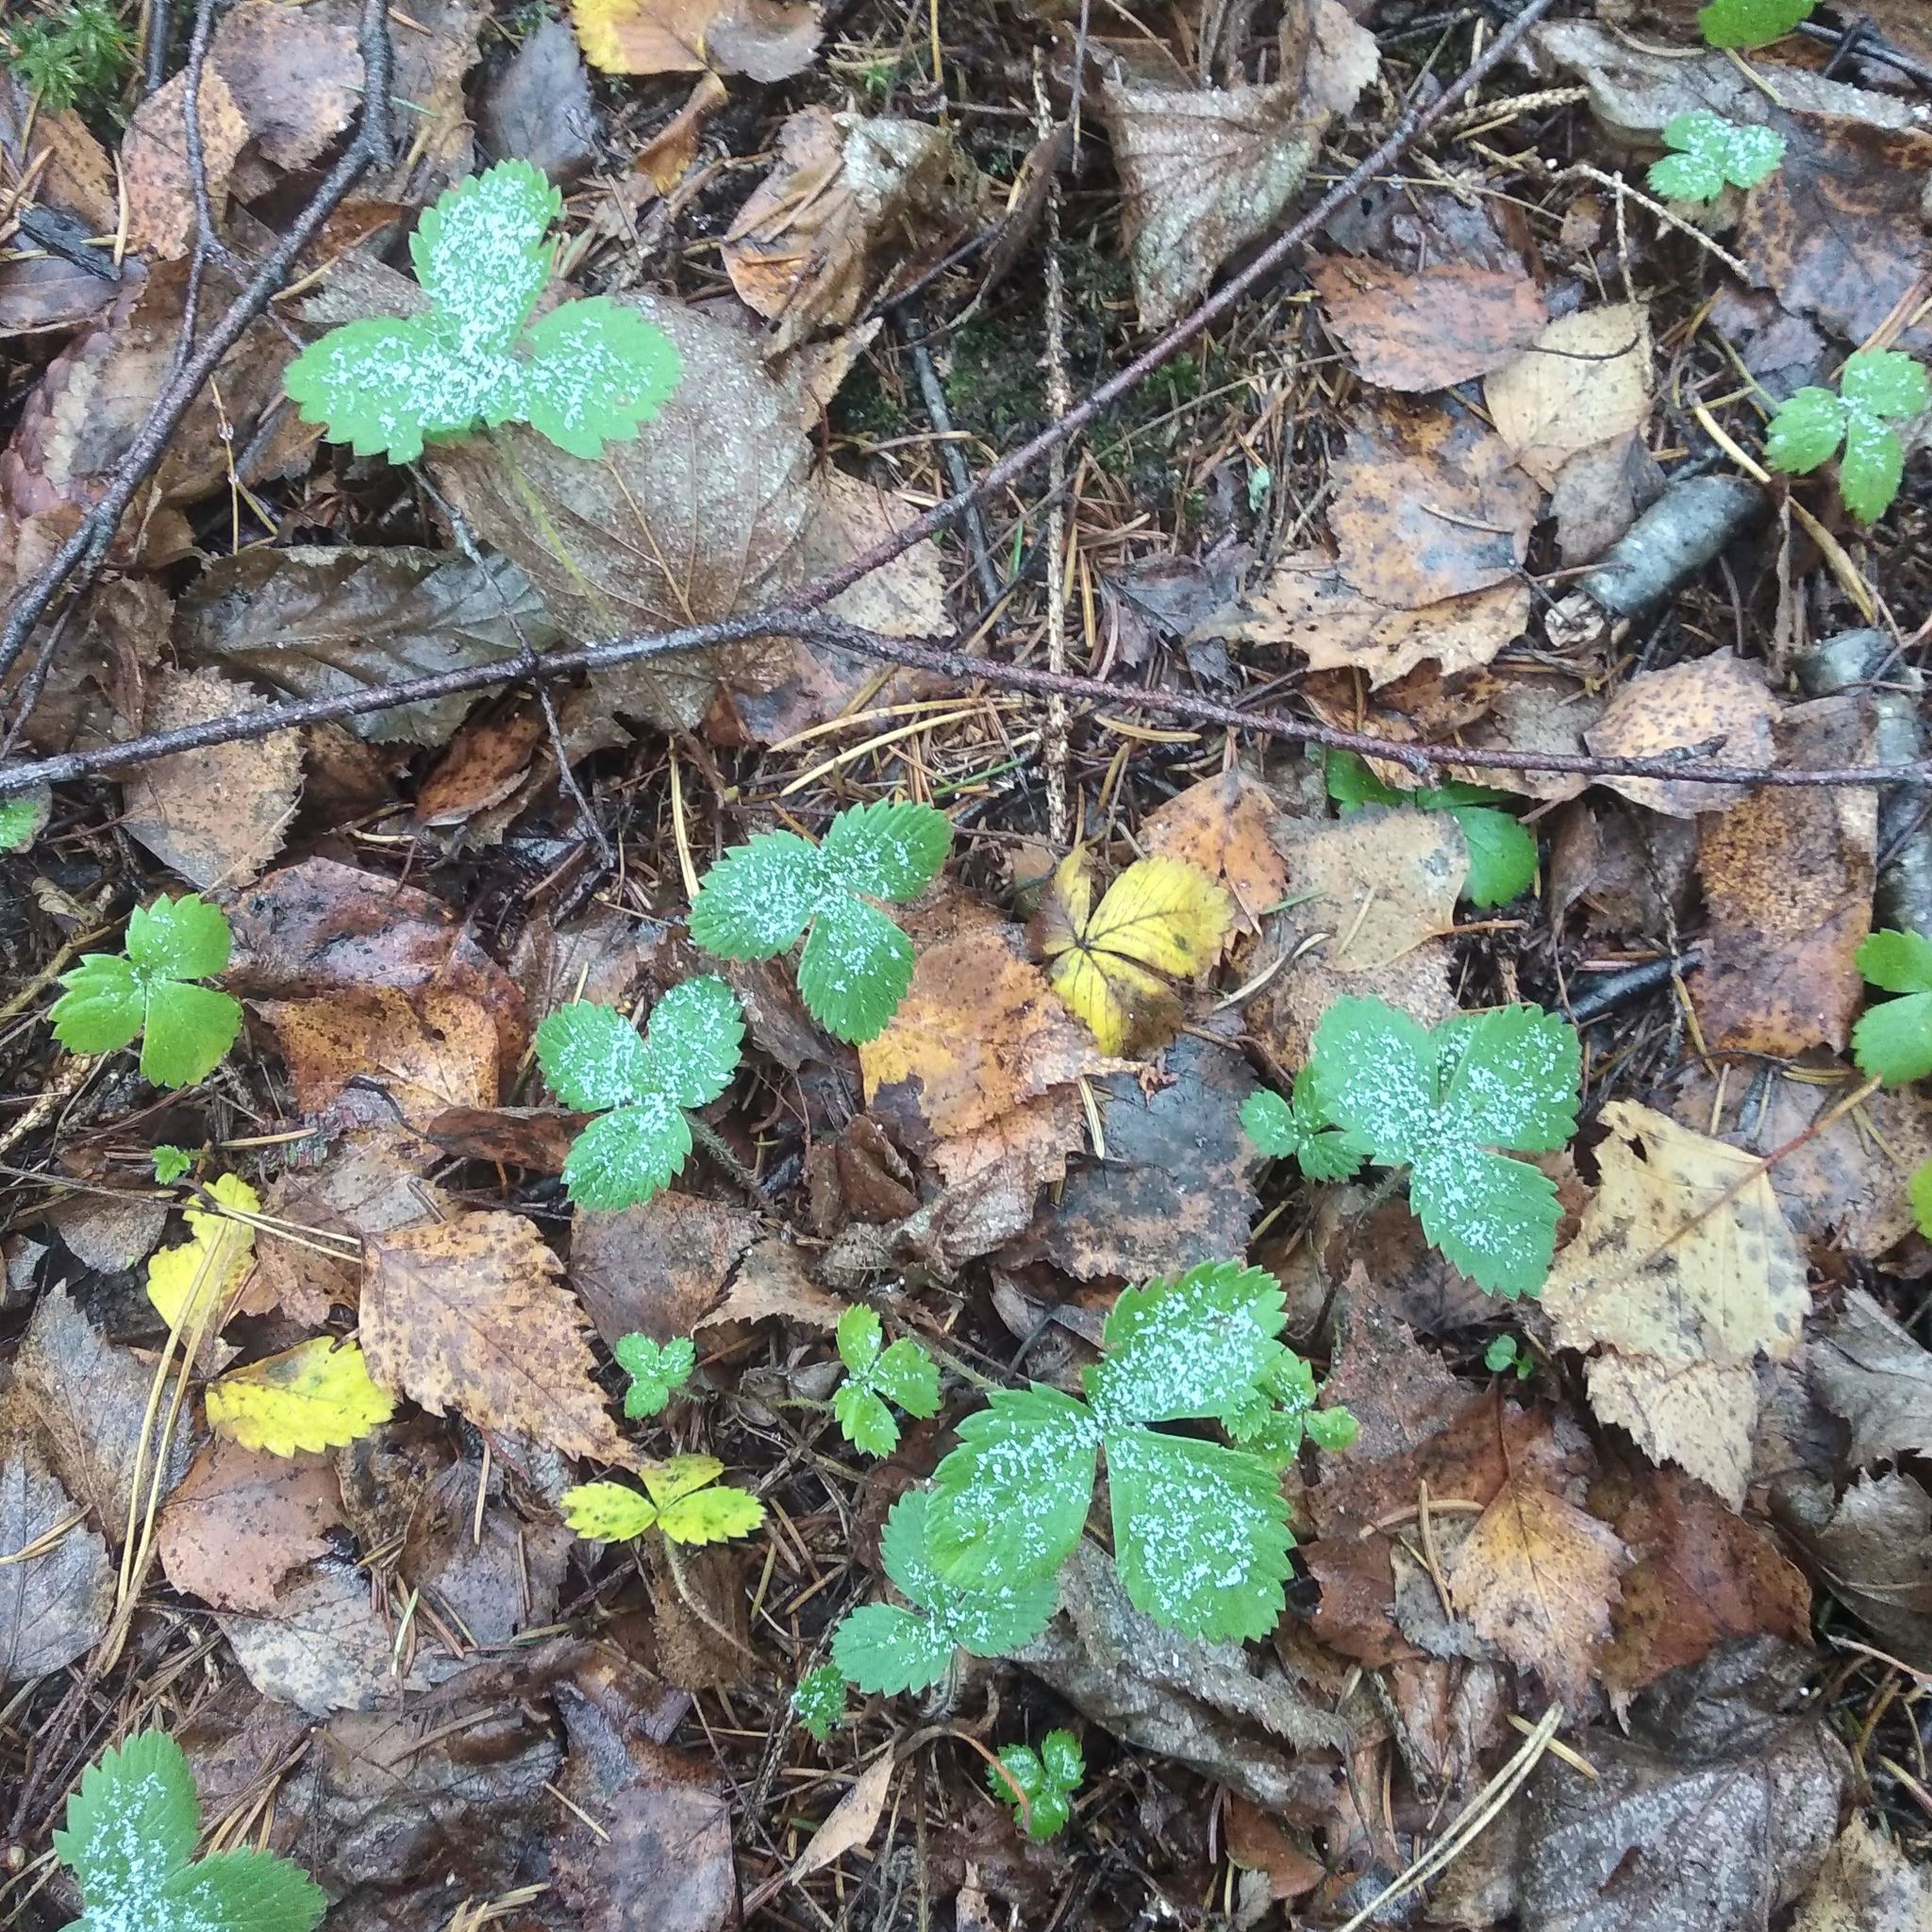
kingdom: Plantae
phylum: Tracheophyta
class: Magnoliopsida
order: Rosales
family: Rosaceae
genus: Fragaria
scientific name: Fragaria vesca
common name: Wild strawberry
